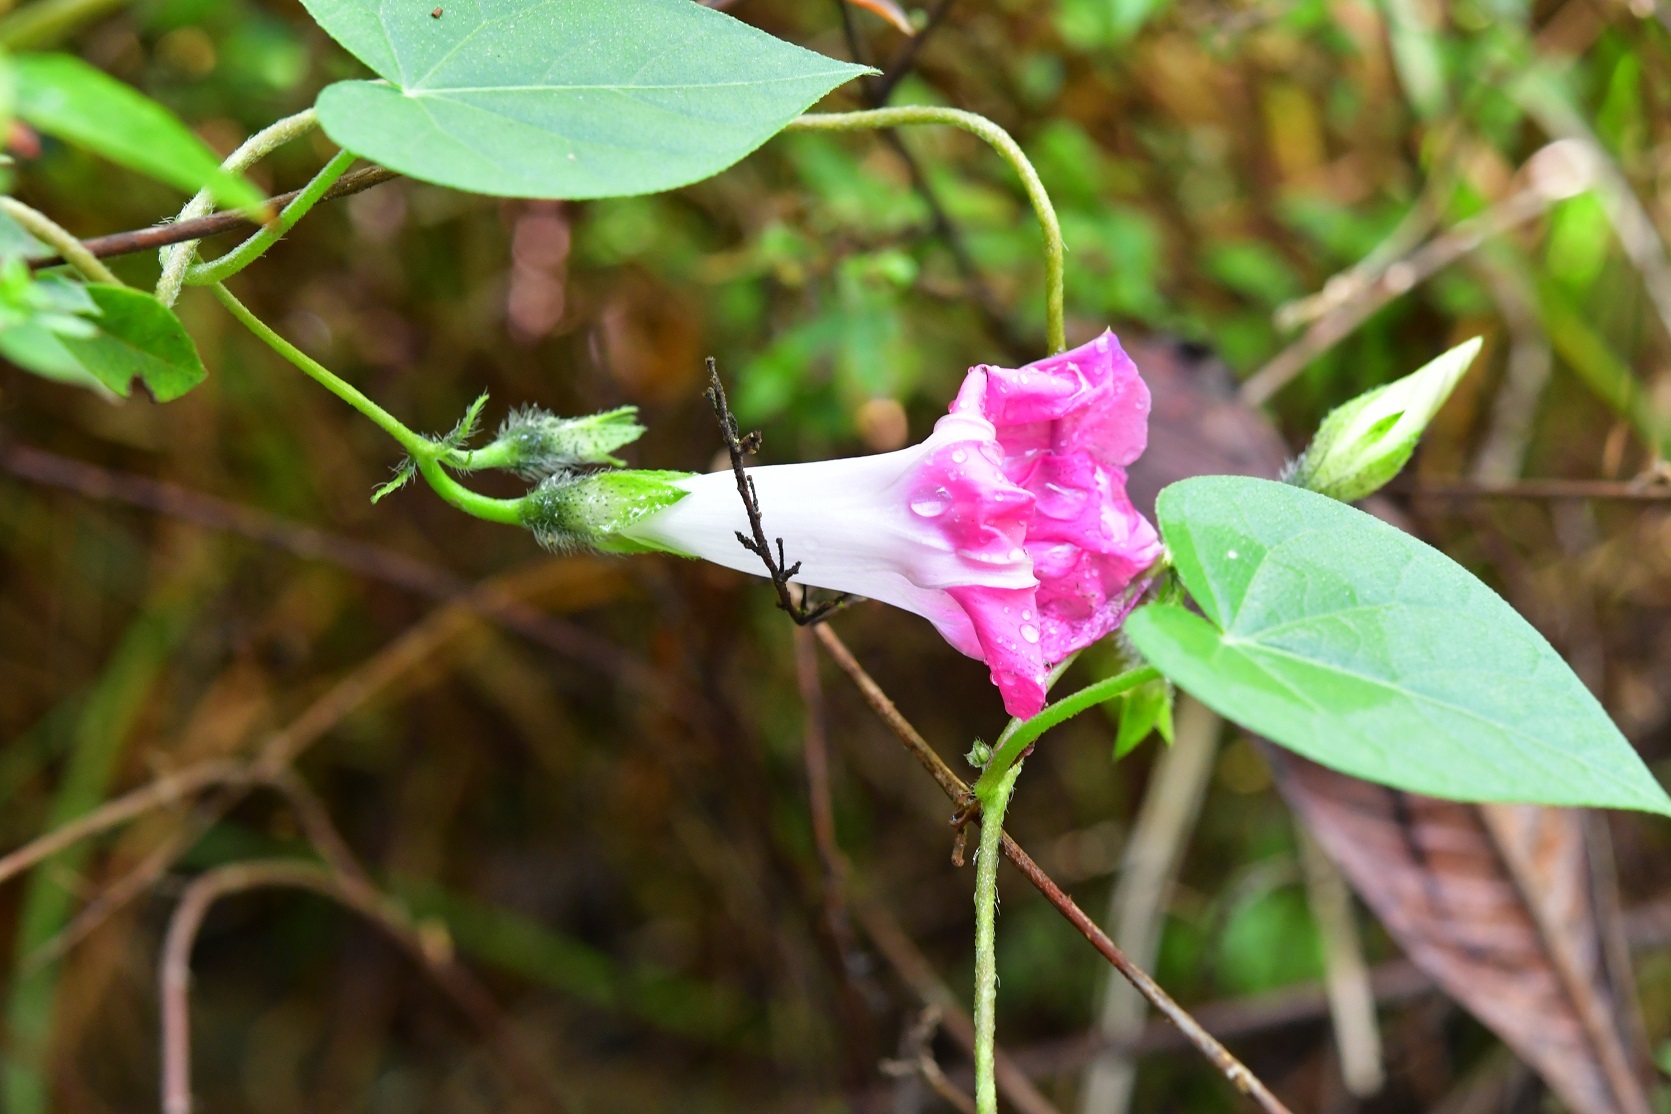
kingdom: Plantae
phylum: Tracheophyta
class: Magnoliopsida
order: Solanales
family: Convolvulaceae
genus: Ipomoea
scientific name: Ipomoea purpurea
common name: Common morning-glory
